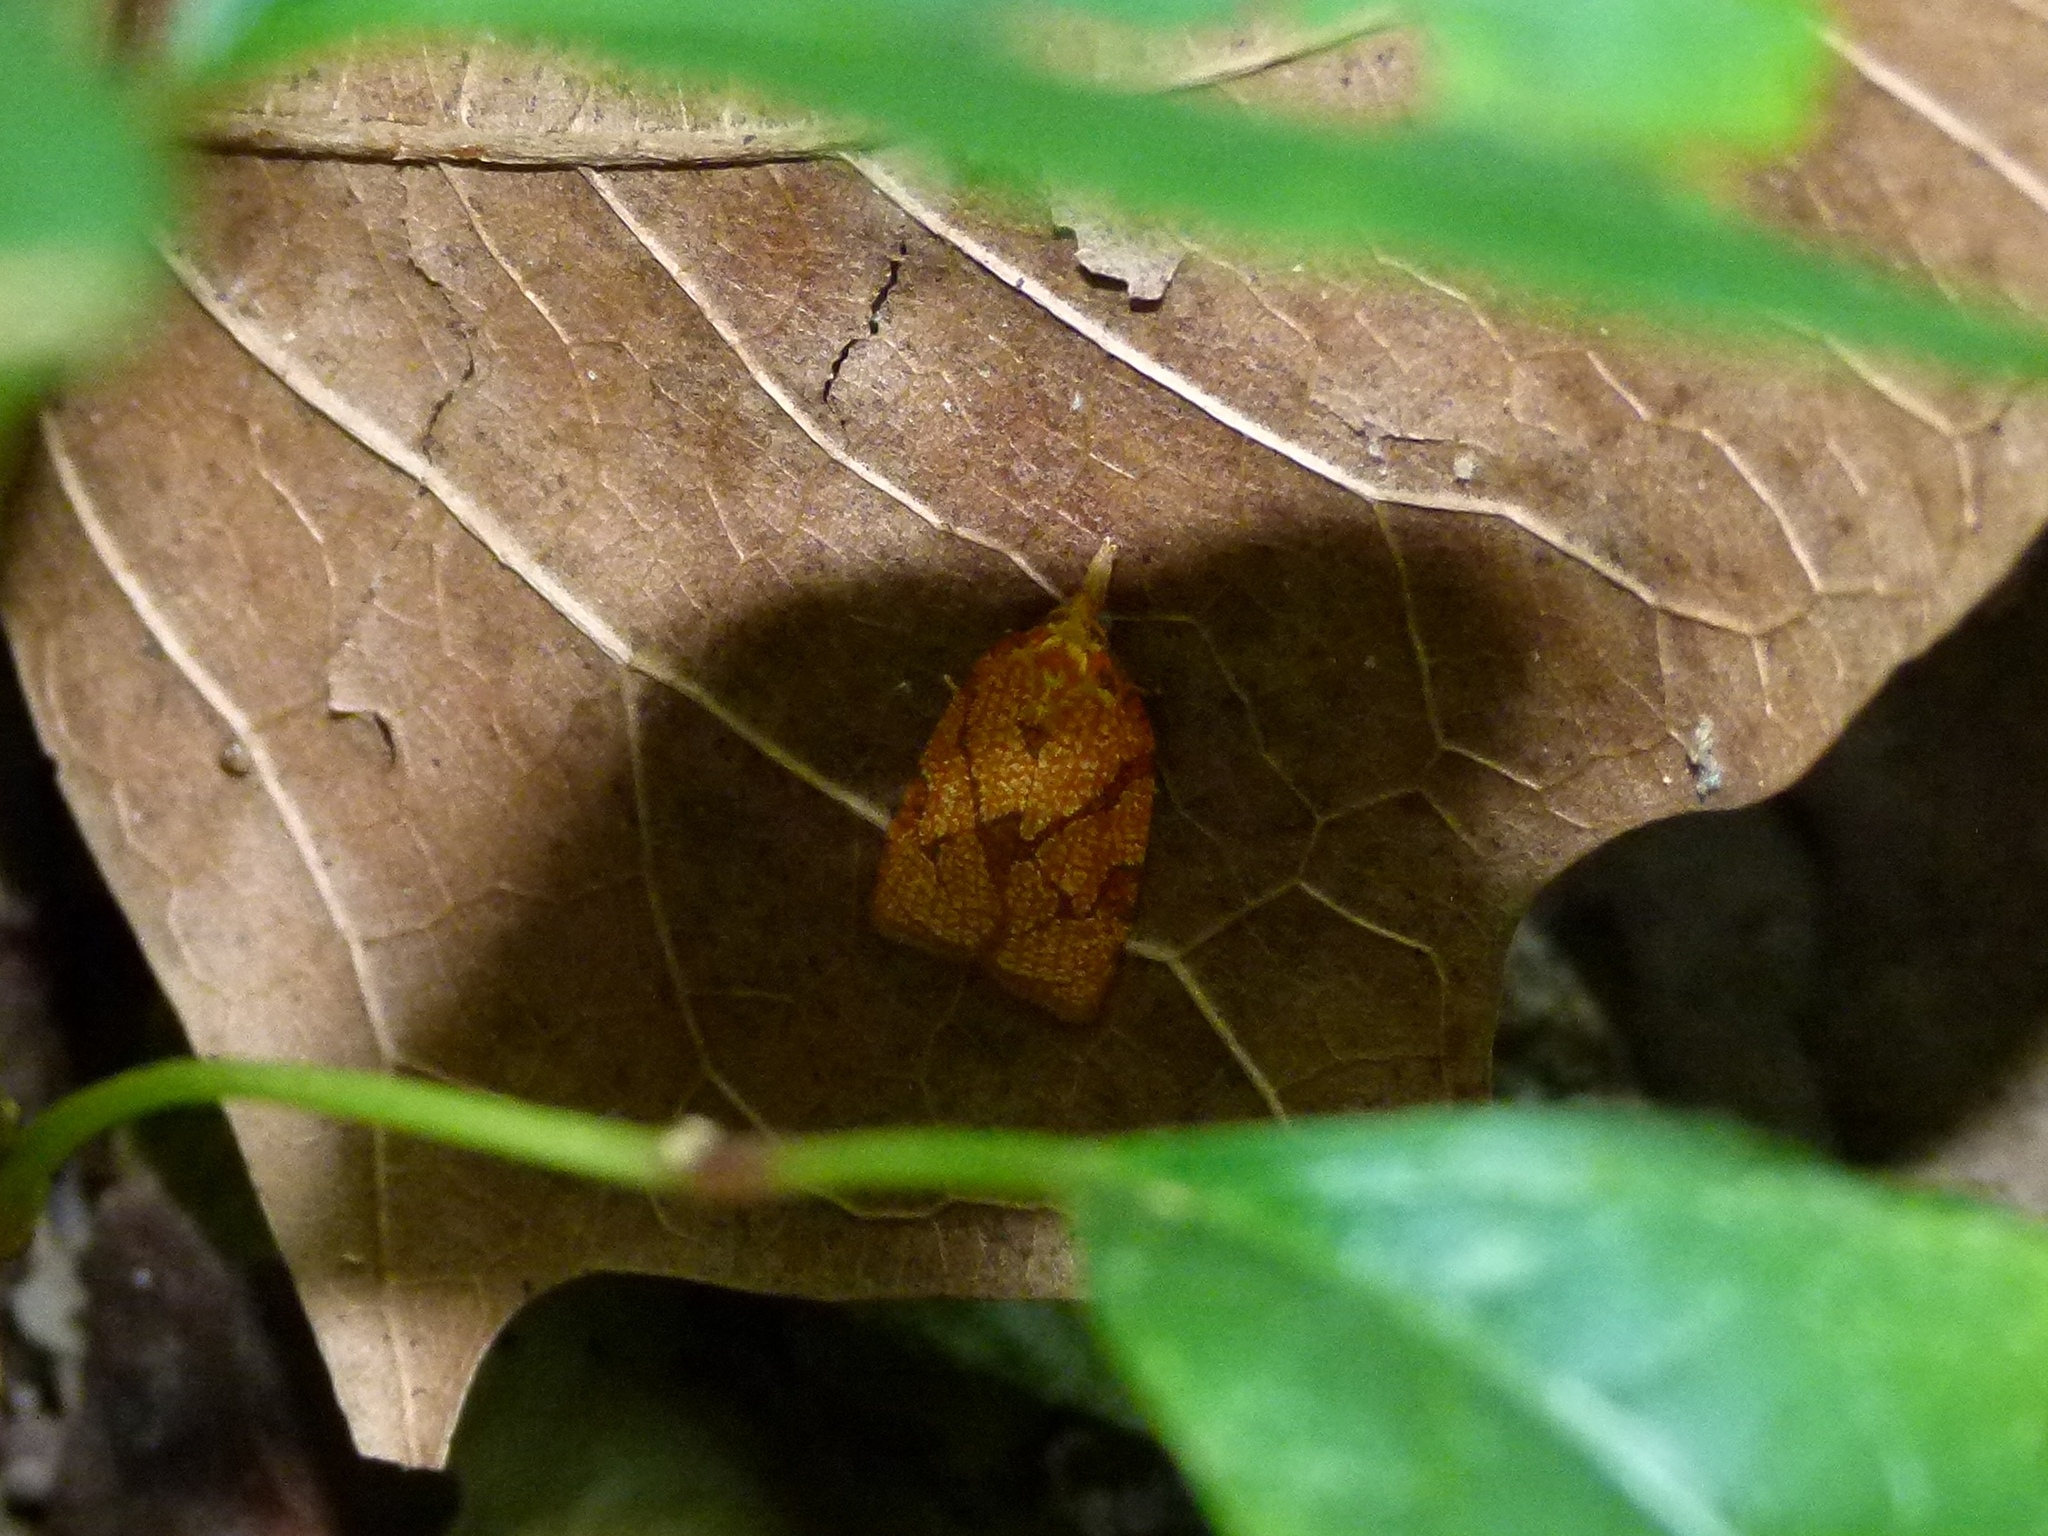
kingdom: Animalia
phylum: Arthropoda
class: Insecta
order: Lepidoptera
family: Tortricidae
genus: Cenopis
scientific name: Cenopis reticulatana
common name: Reticulated fruitworm moth
